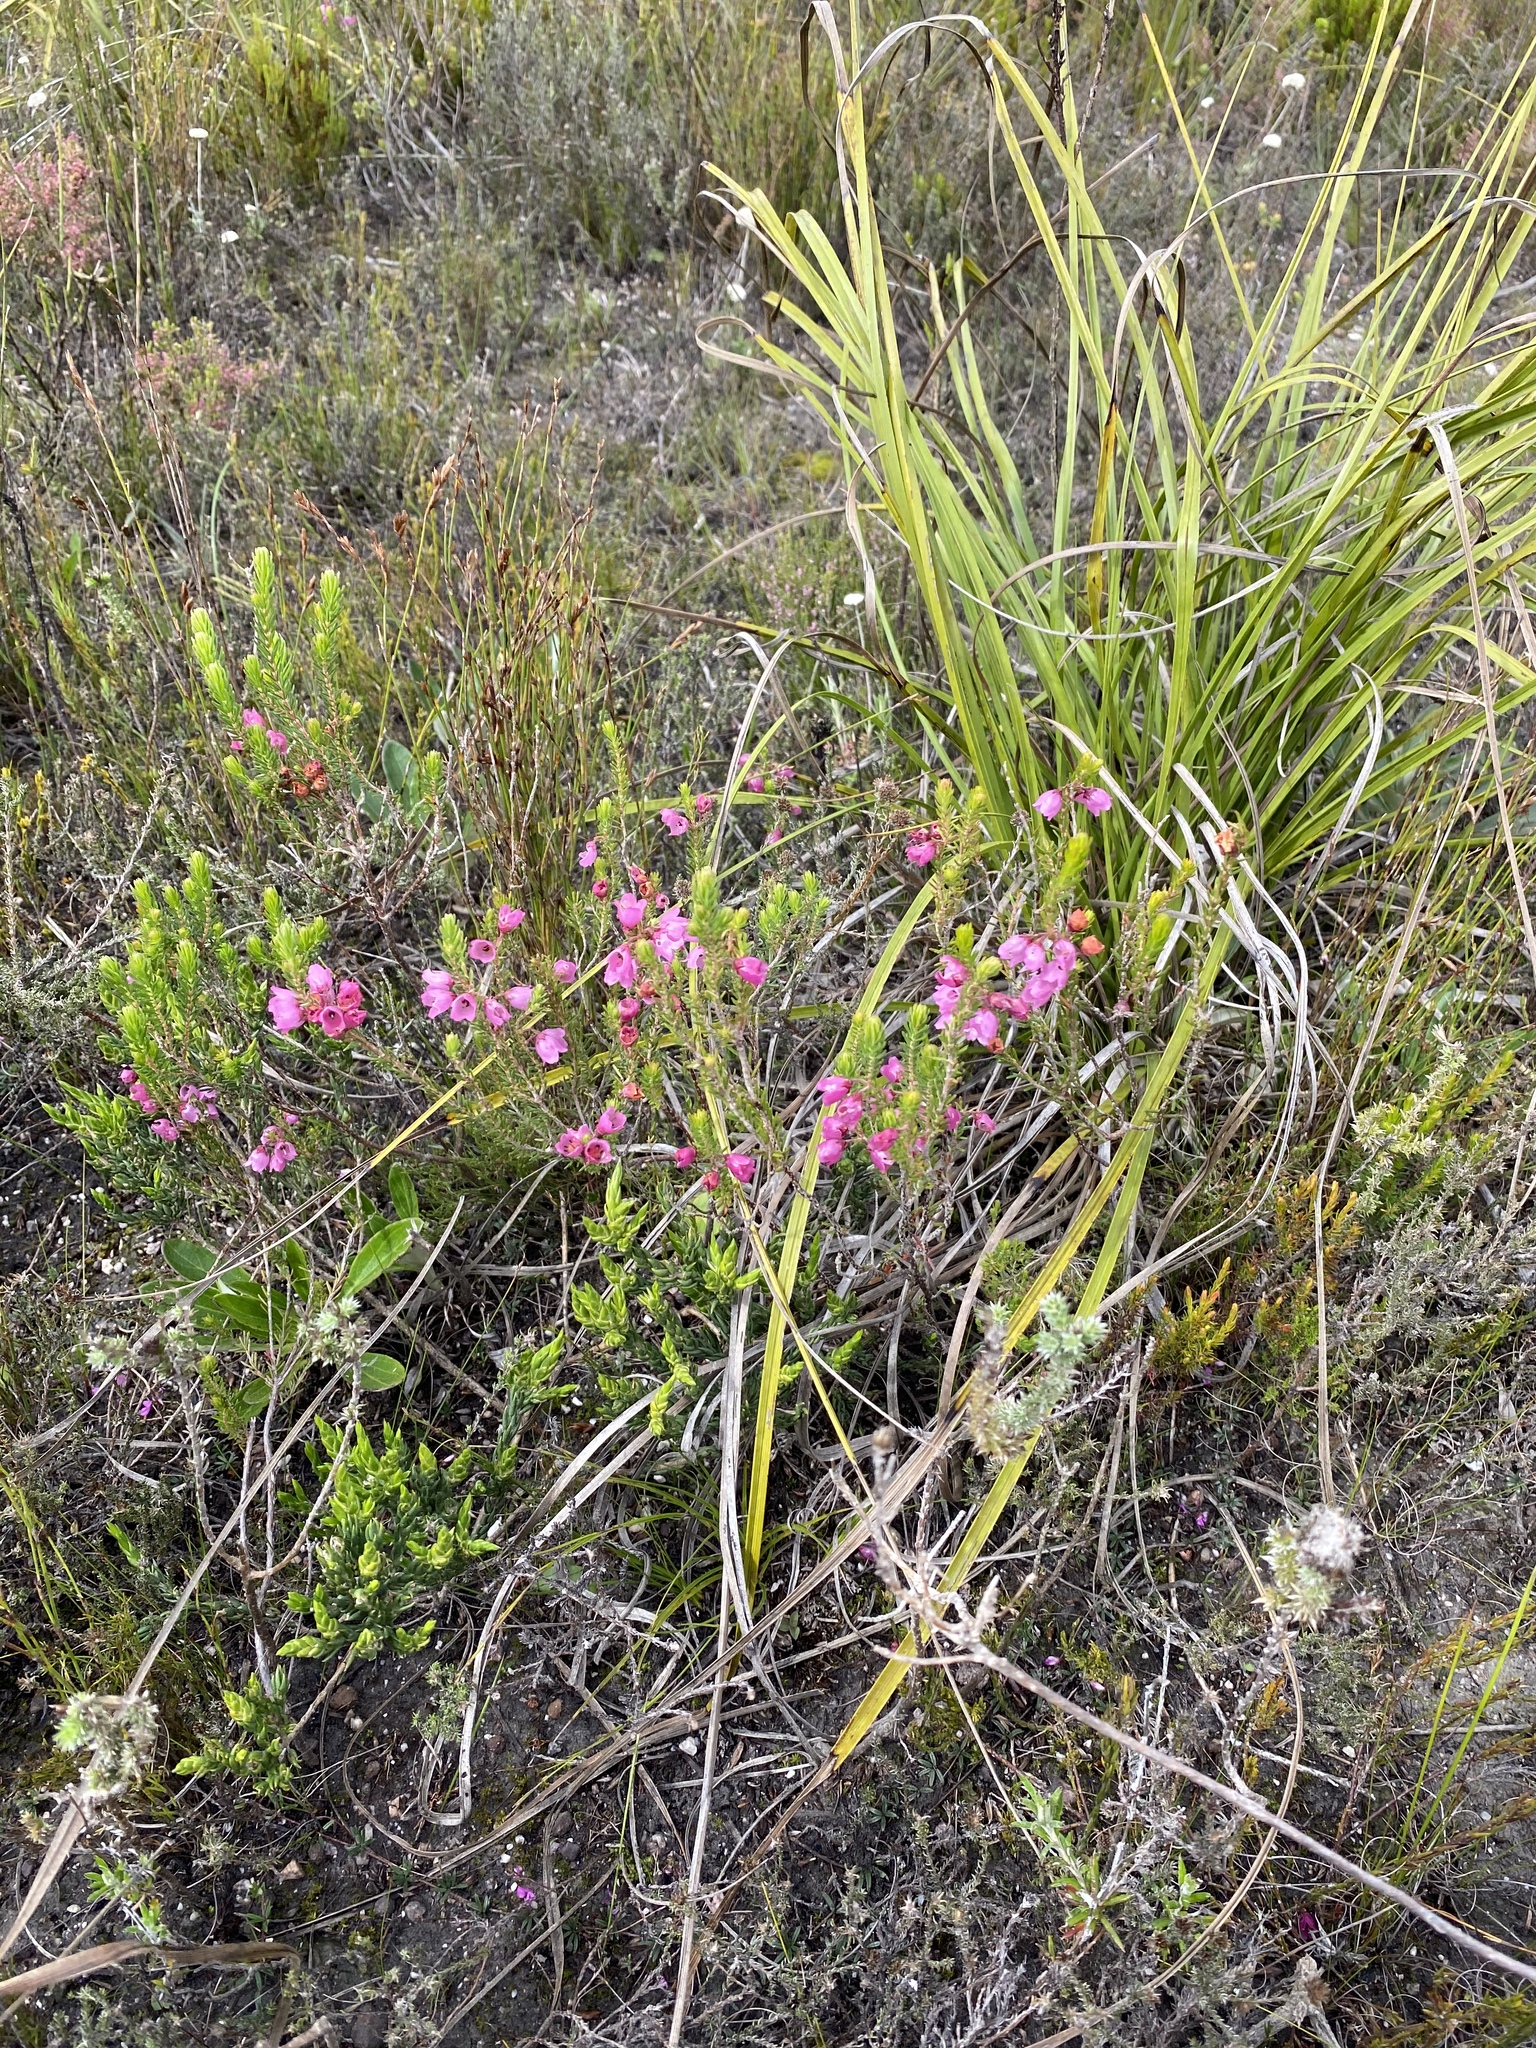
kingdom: Plantae
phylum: Tracheophyta
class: Magnoliopsida
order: Ericales
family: Ericaceae
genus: Erica
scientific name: Erica axilliflora
